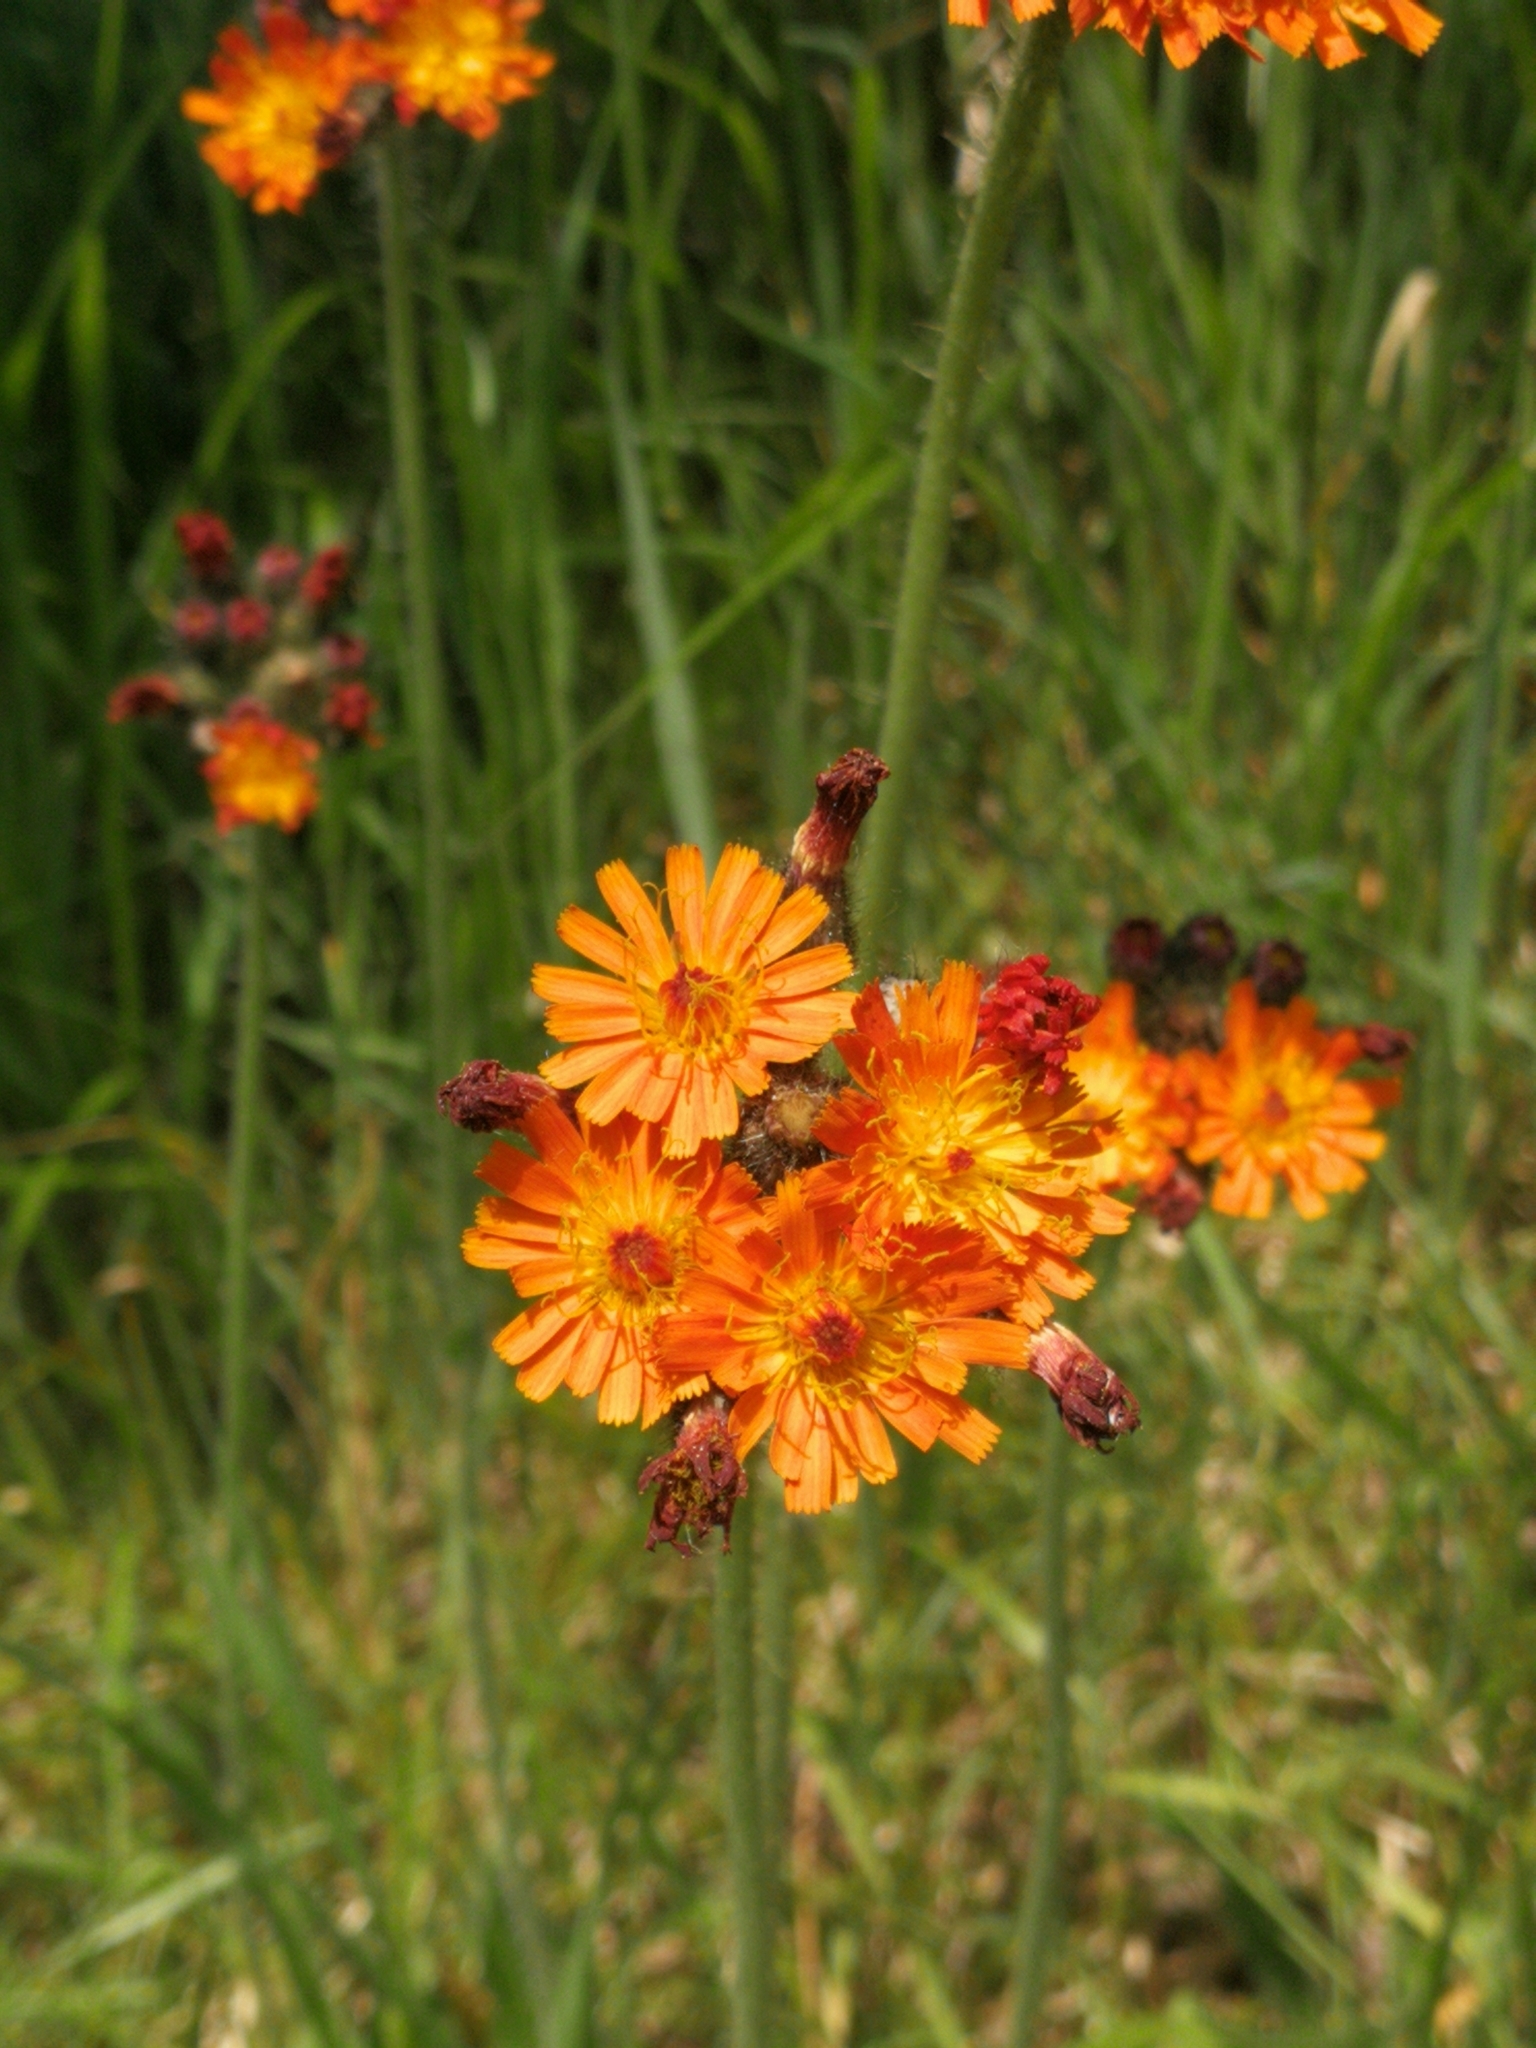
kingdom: Plantae
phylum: Tracheophyta
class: Magnoliopsida
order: Asterales
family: Asteraceae
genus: Pilosella
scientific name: Pilosella aurantiaca
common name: Fox-and-cubs
